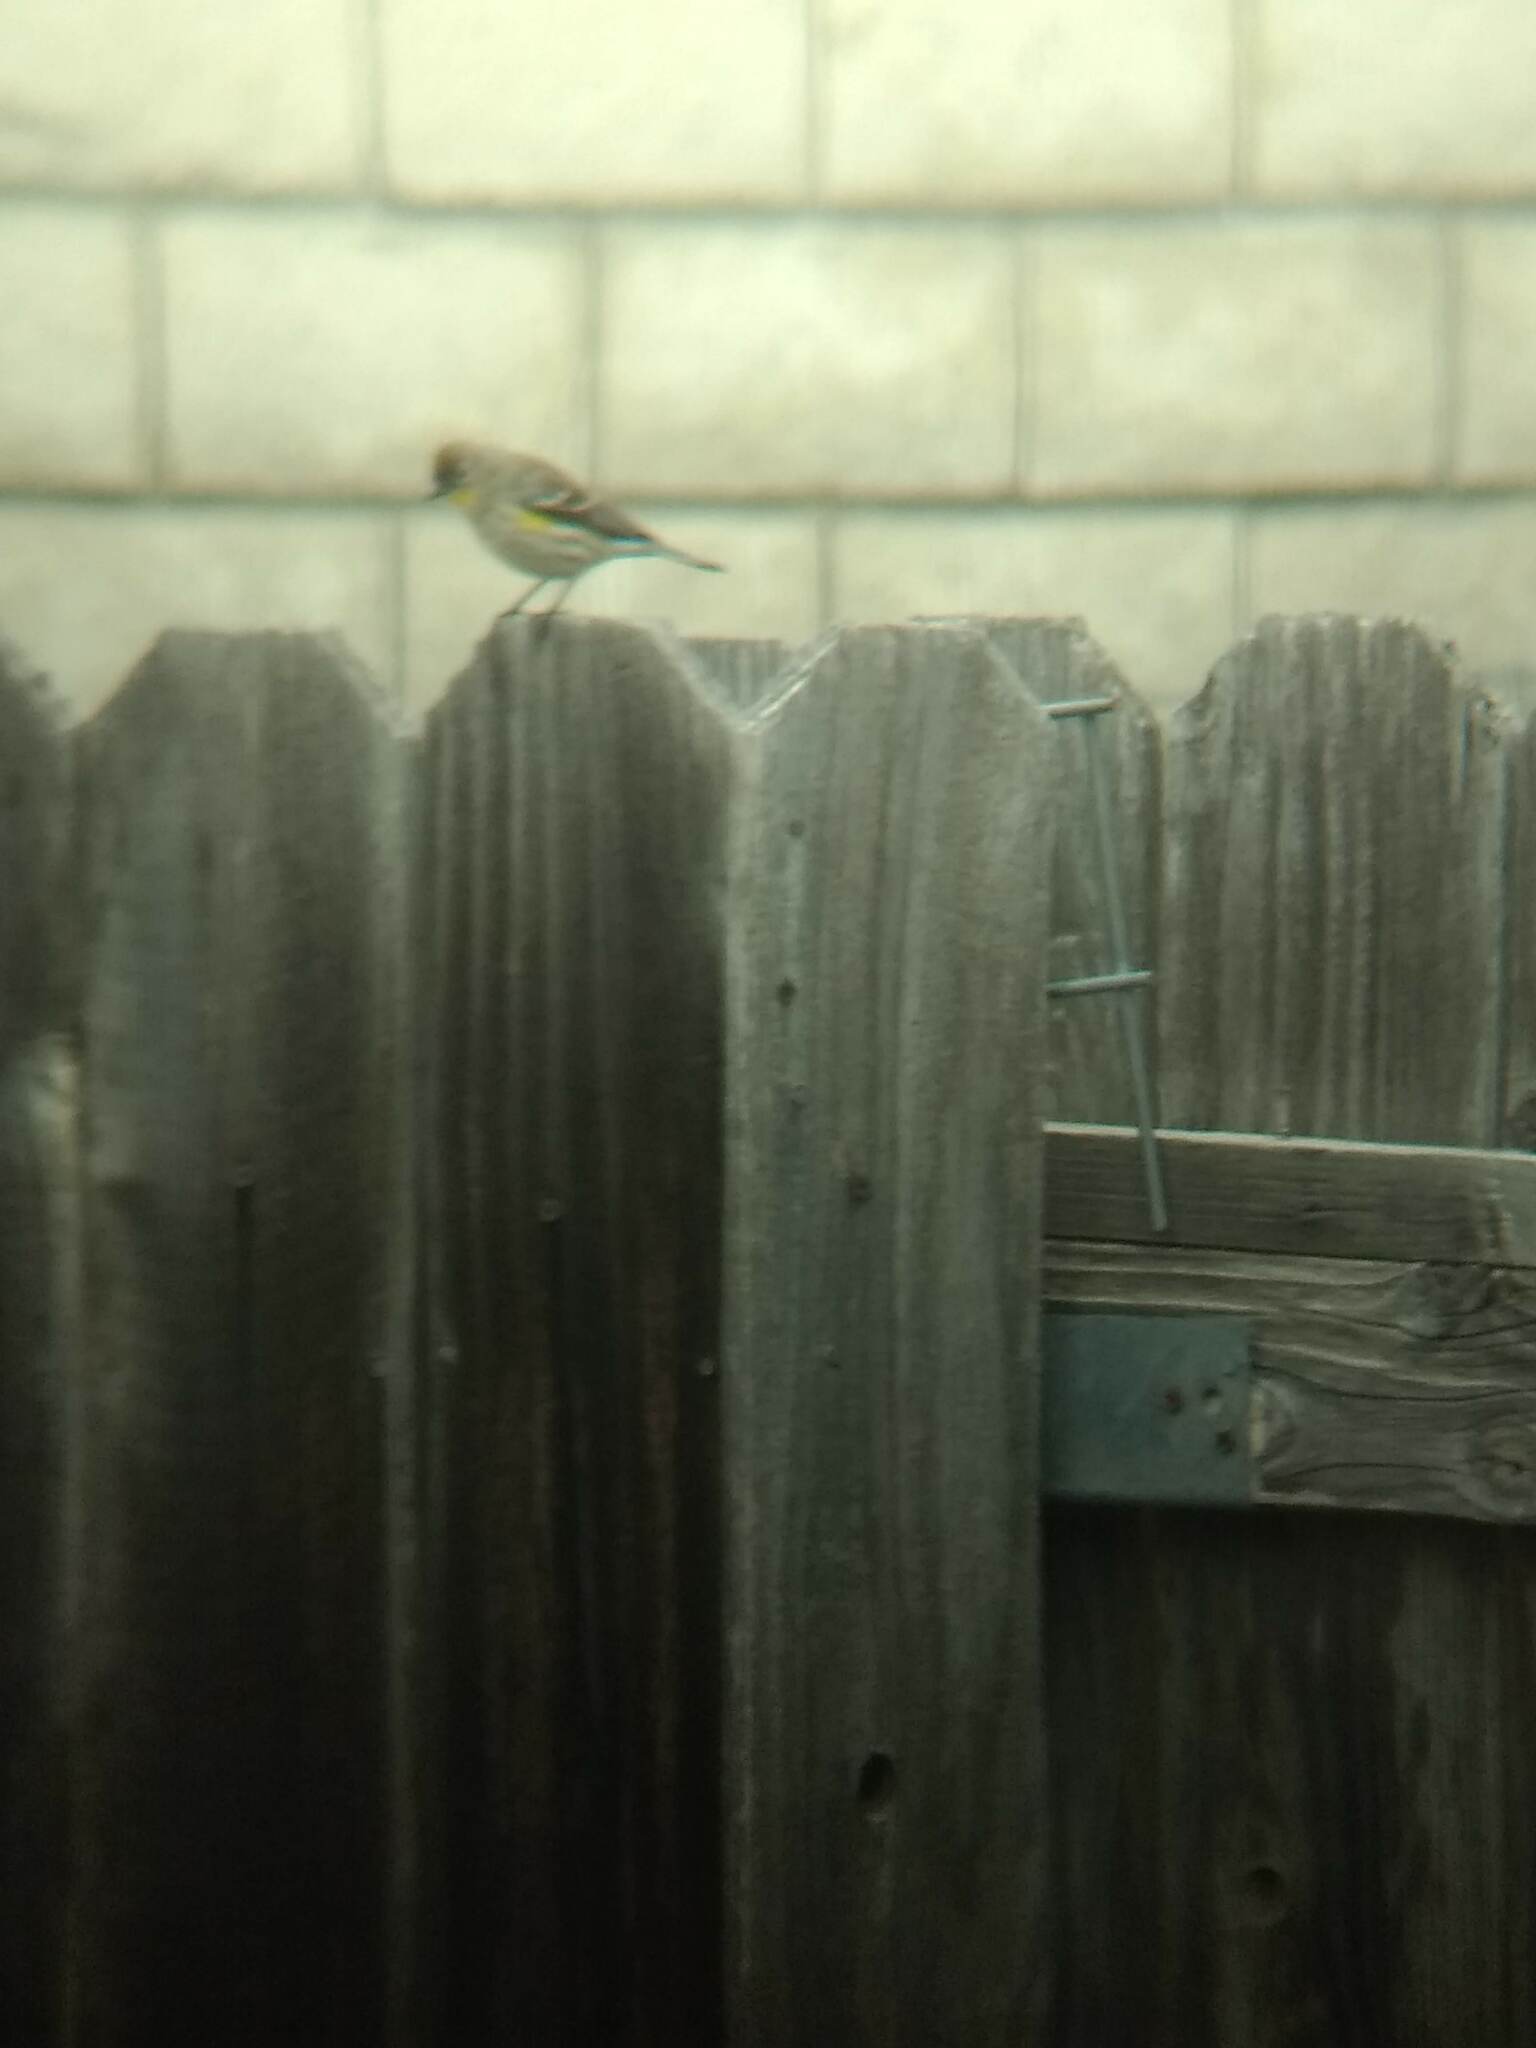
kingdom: Animalia
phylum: Chordata
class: Aves
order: Passeriformes
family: Parulidae
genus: Setophaga
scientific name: Setophaga coronata
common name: Myrtle warbler
